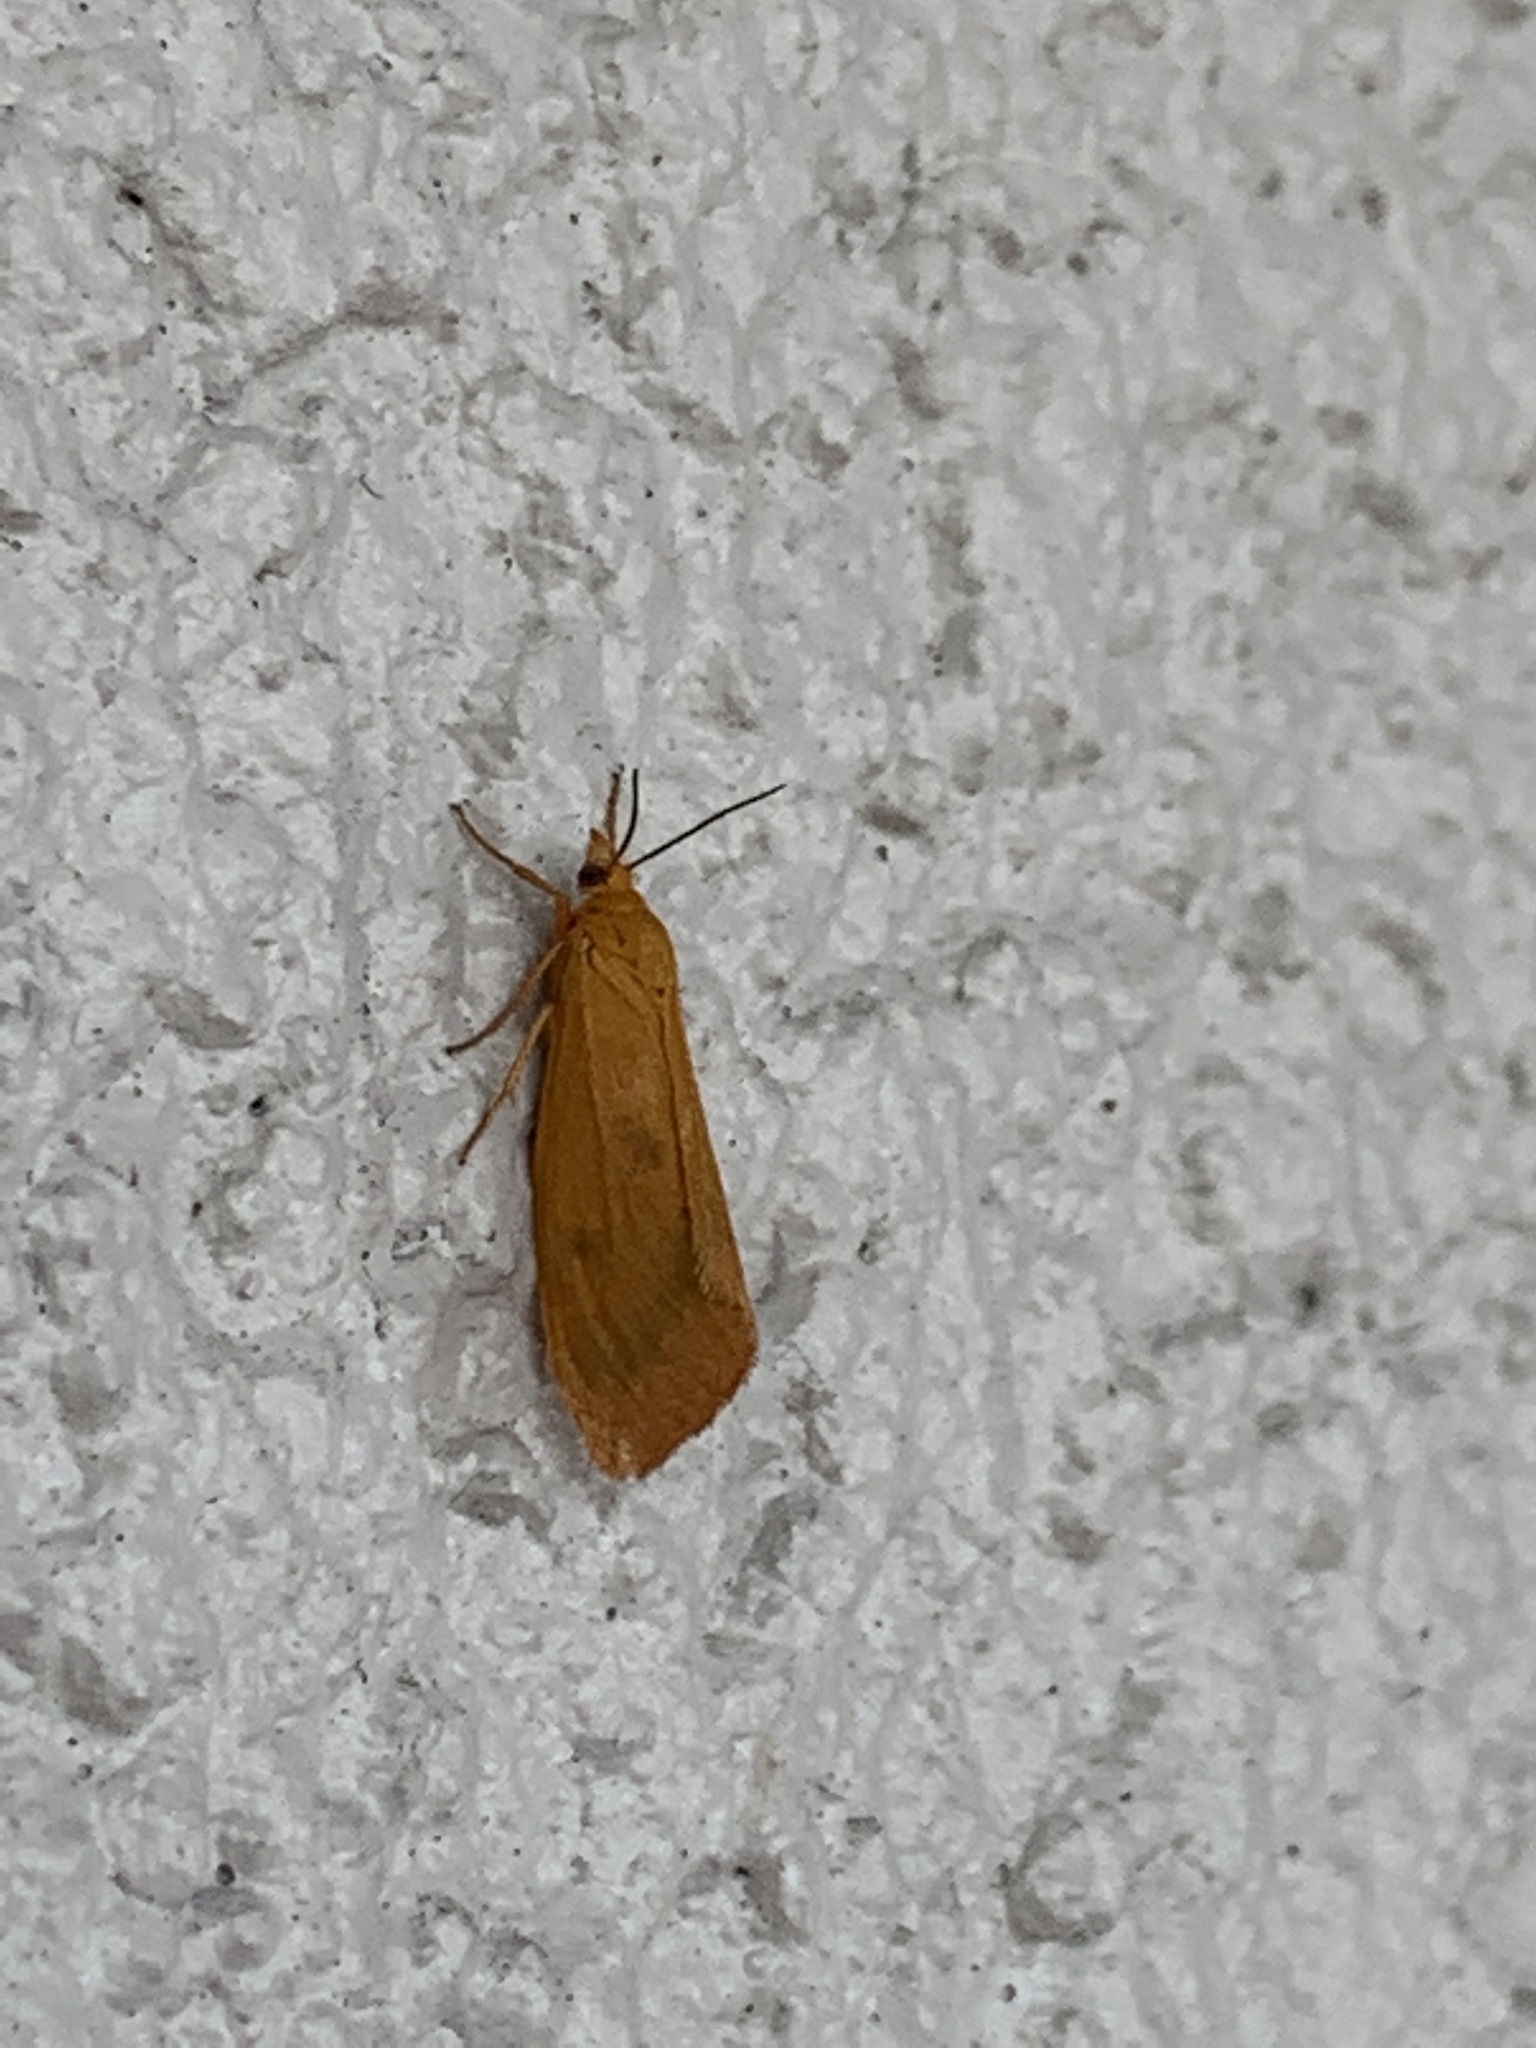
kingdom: Animalia
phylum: Arthropoda
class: Insecta
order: Lepidoptera
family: Erebidae
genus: Virbia
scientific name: Virbia aurantiaca
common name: Orange virbia moth
